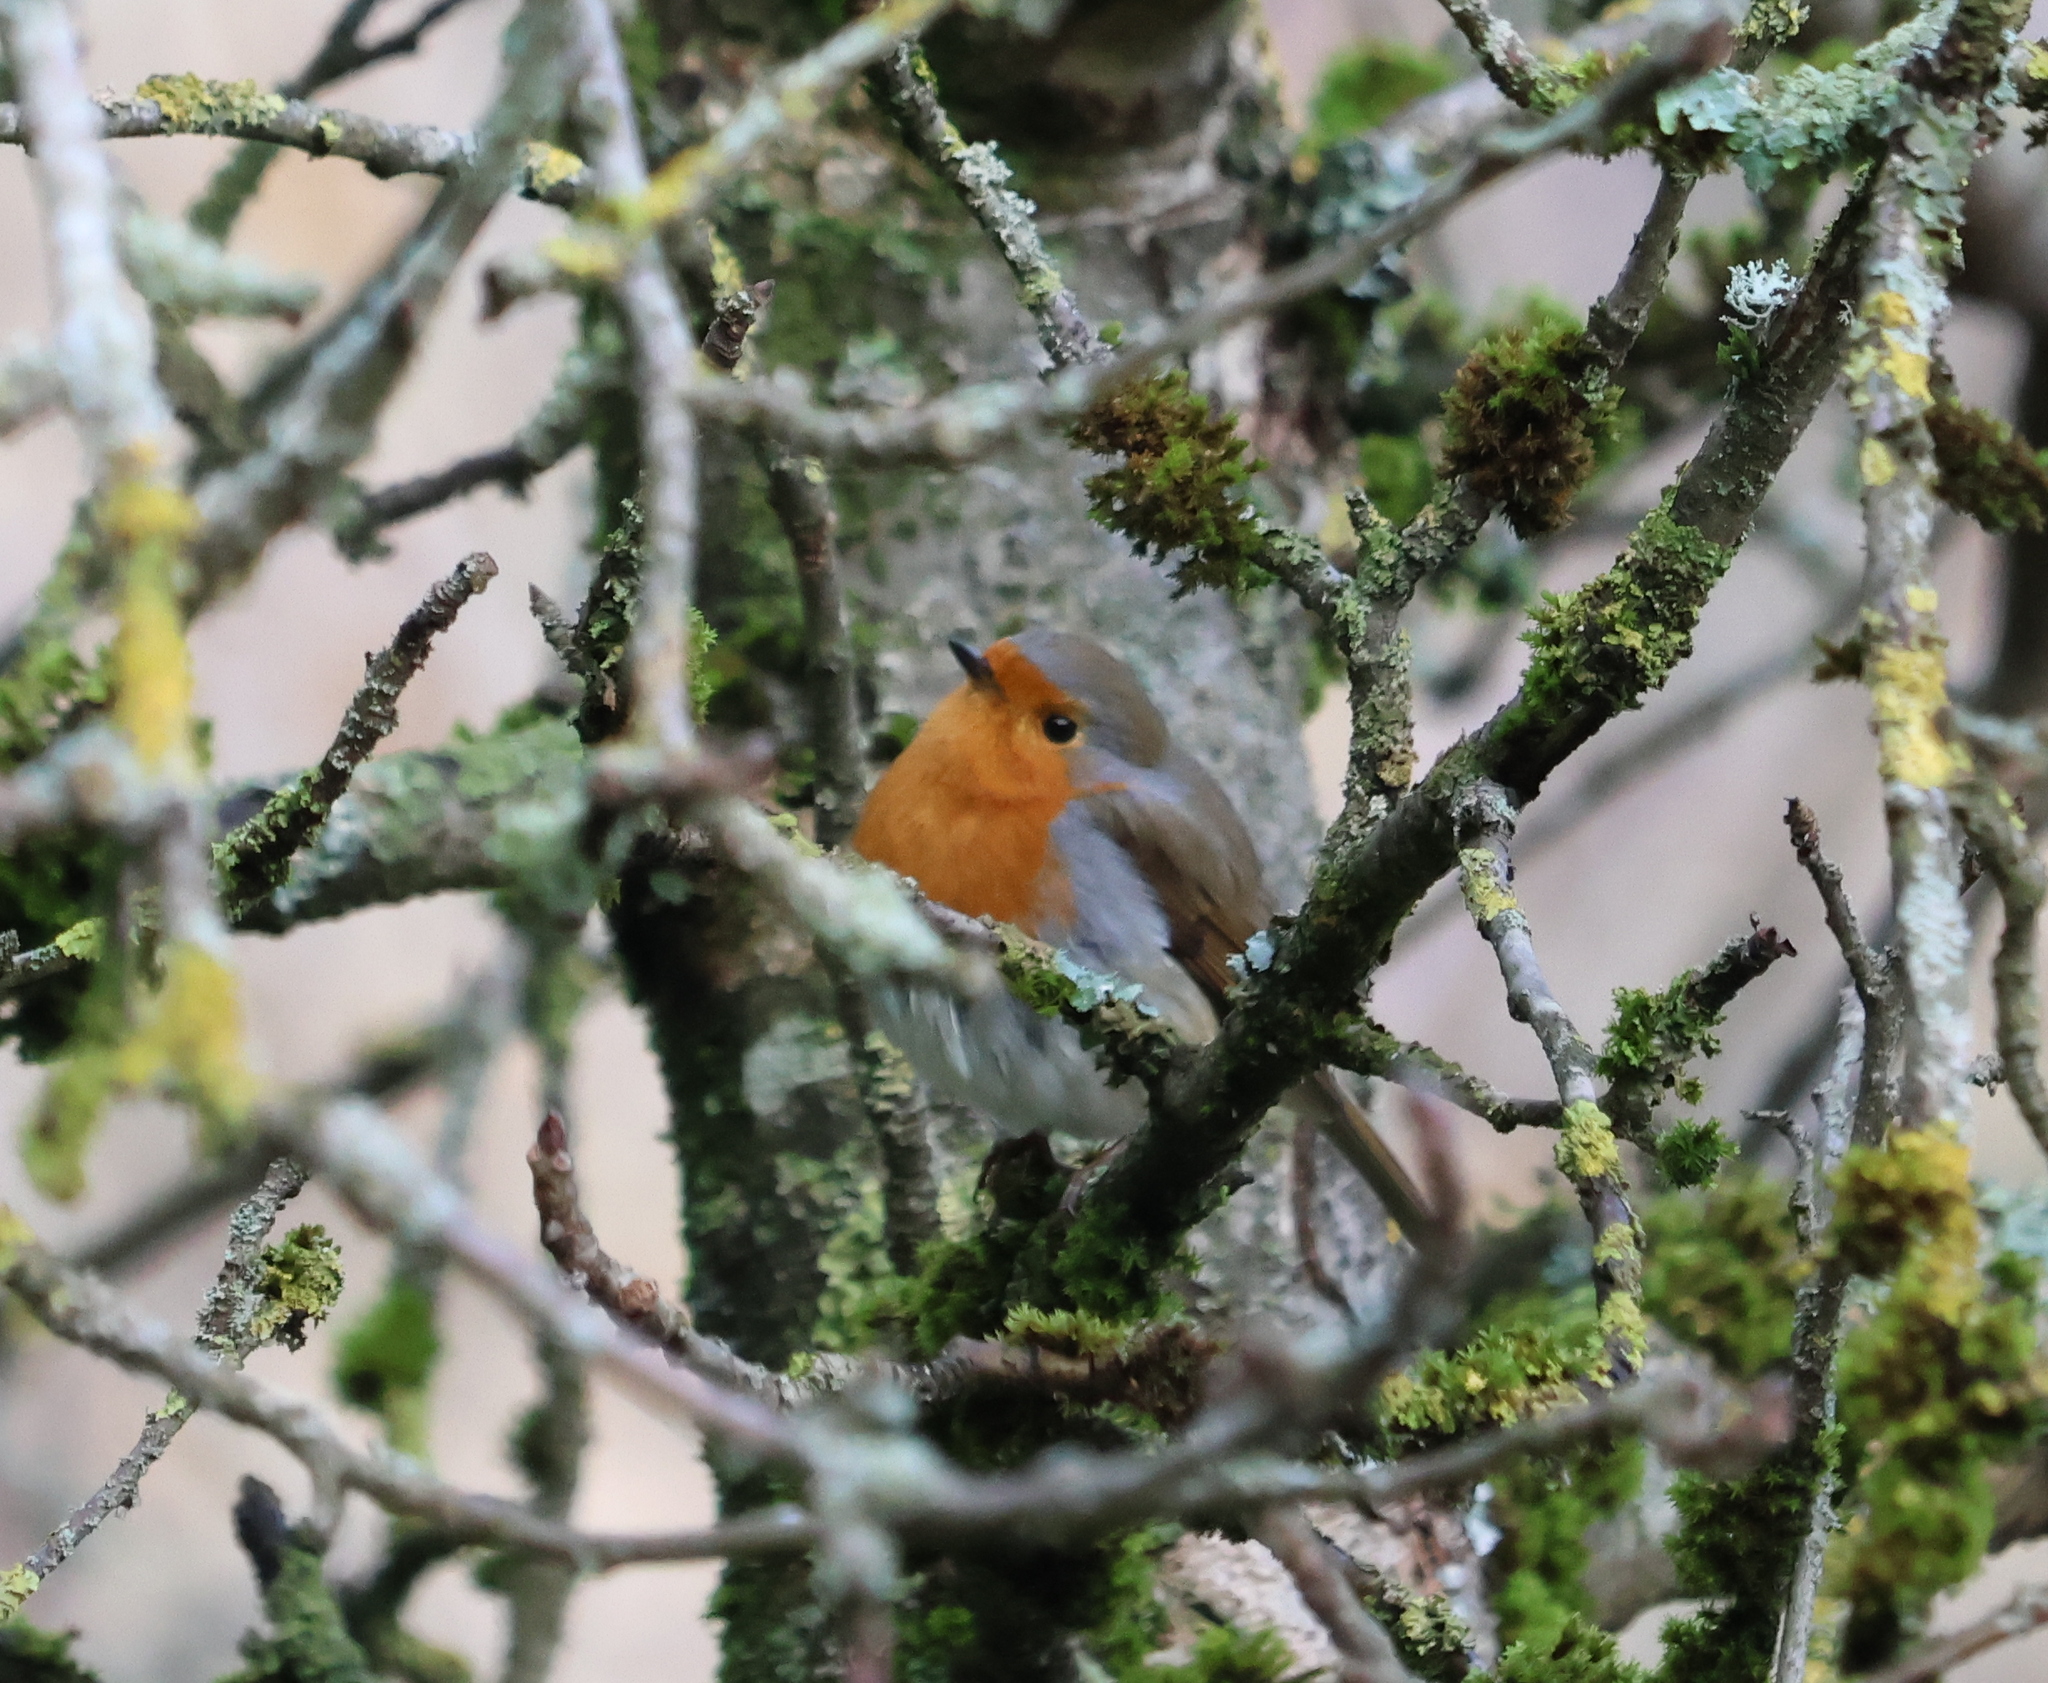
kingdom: Animalia
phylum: Chordata
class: Aves
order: Passeriformes
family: Muscicapidae
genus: Erithacus
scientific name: Erithacus rubecula
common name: European robin
